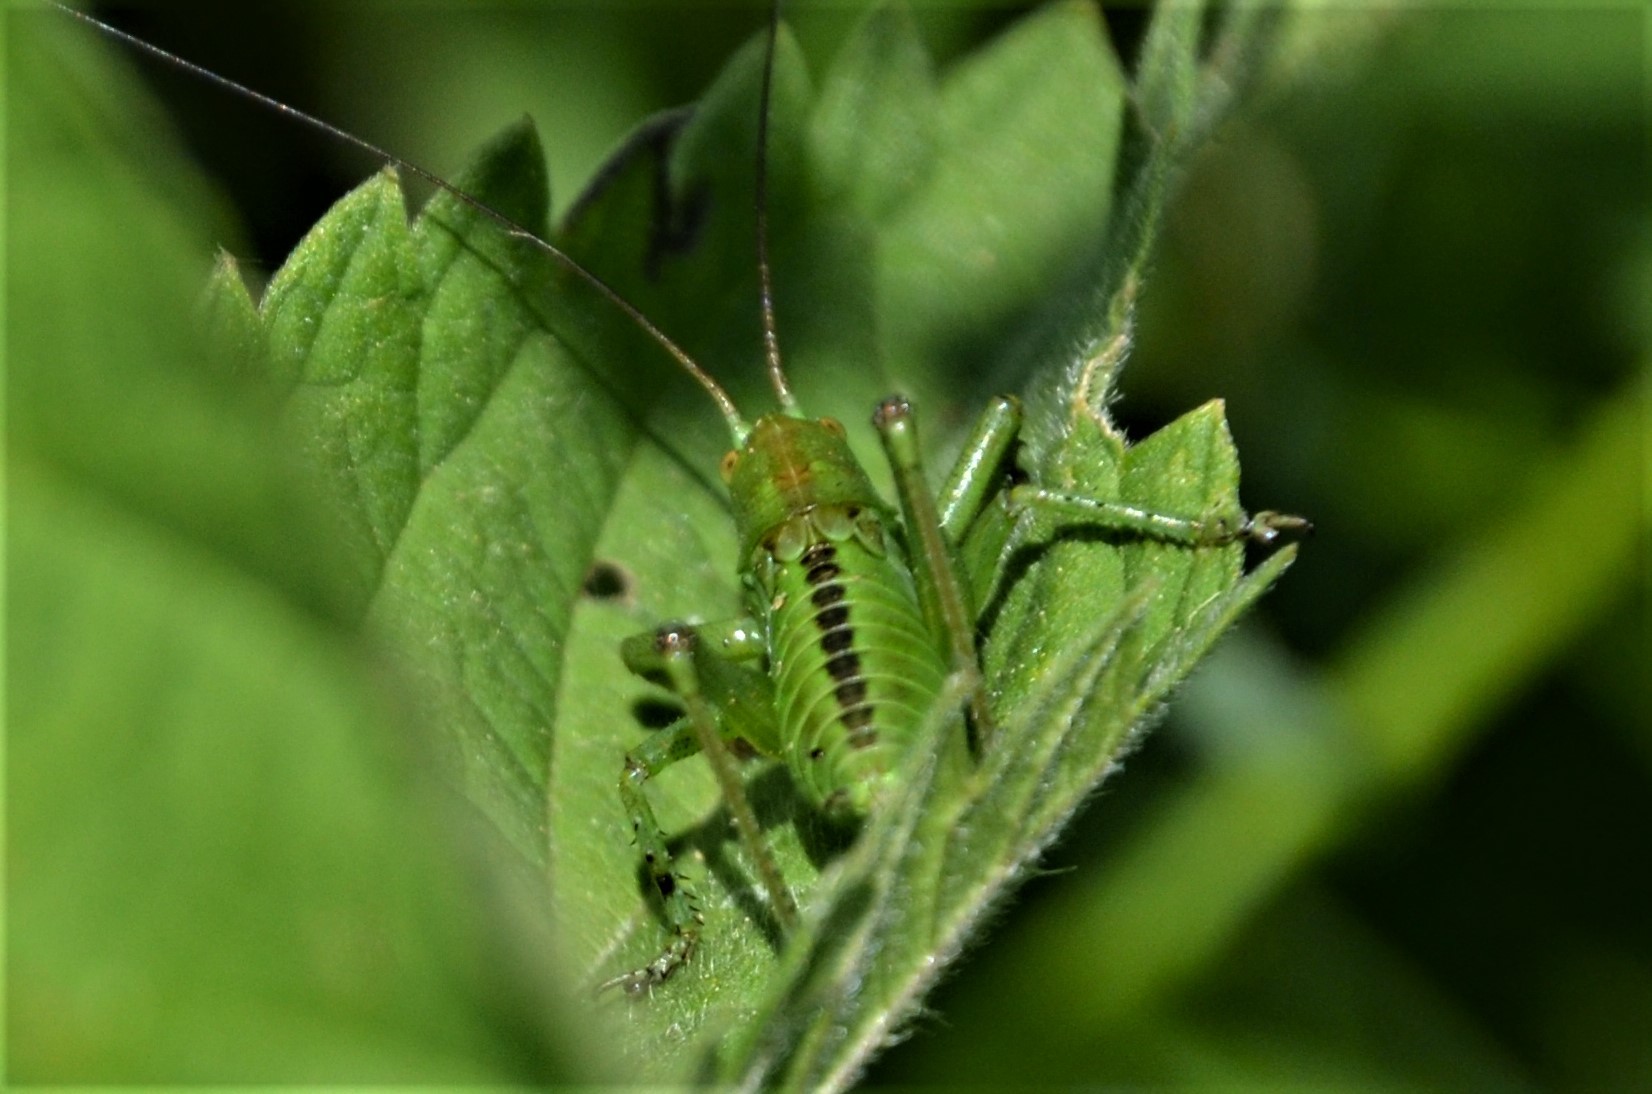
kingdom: Animalia
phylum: Arthropoda
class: Insecta
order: Orthoptera
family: Tettigoniidae
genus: Tettigonia
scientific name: Tettigonia cantans
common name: Upland green bush-cricket
